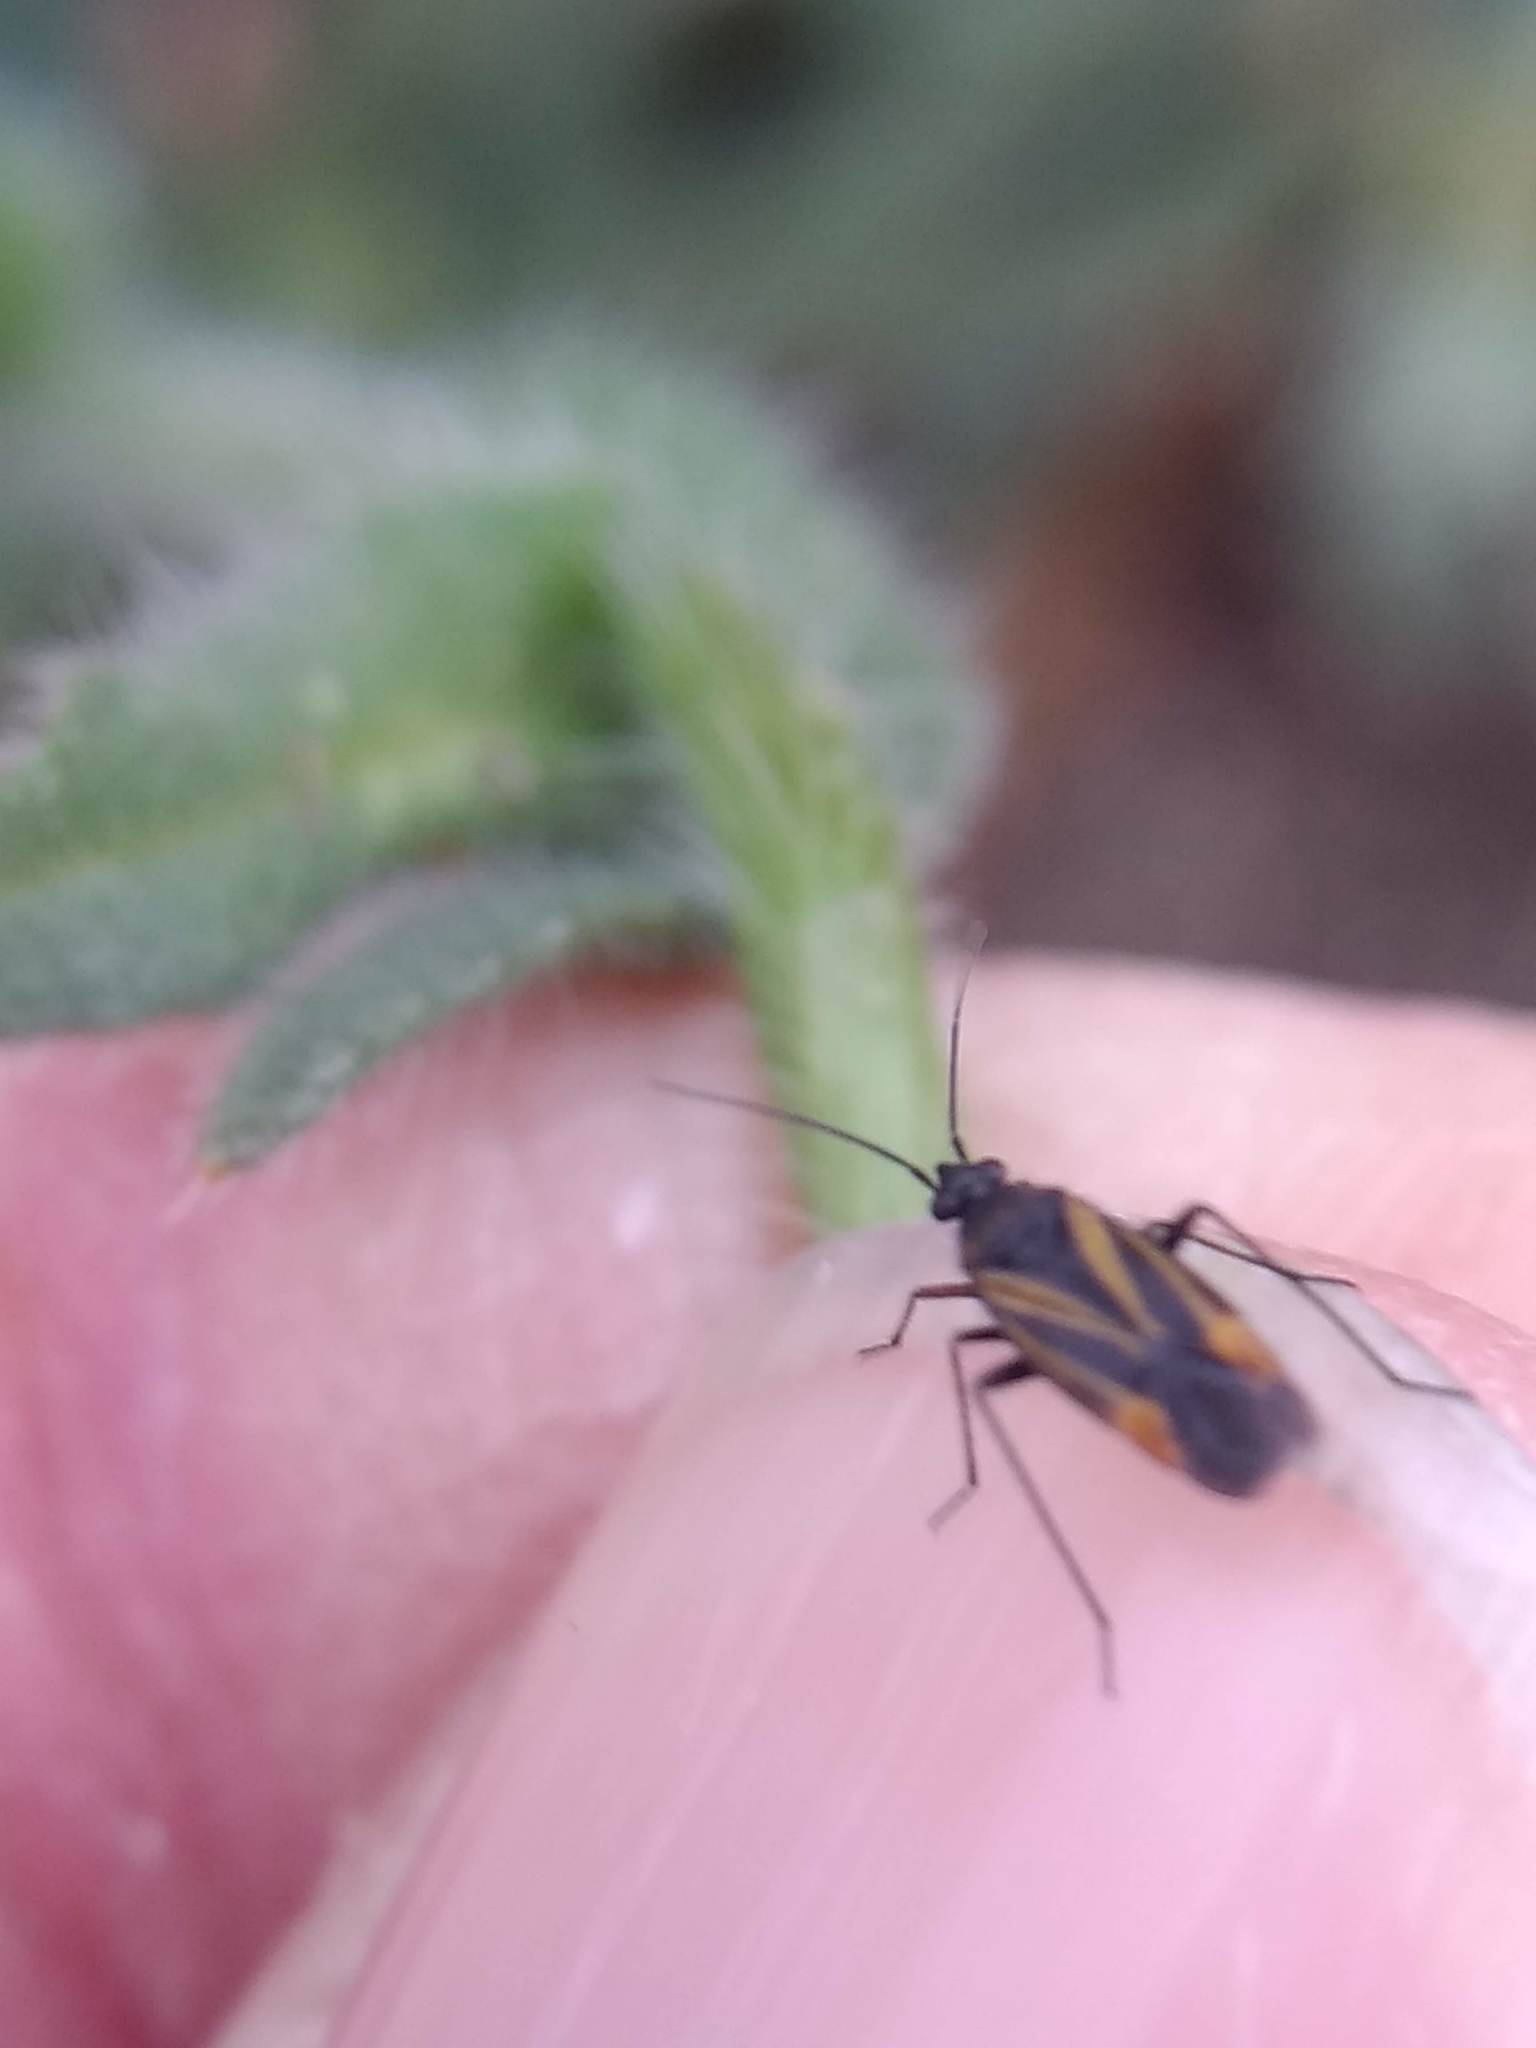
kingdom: Animalia
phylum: Arthropoda
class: Insecta
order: Hemiptera
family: Miridae
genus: Plagiognathus
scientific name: Plagiognathus moerens
